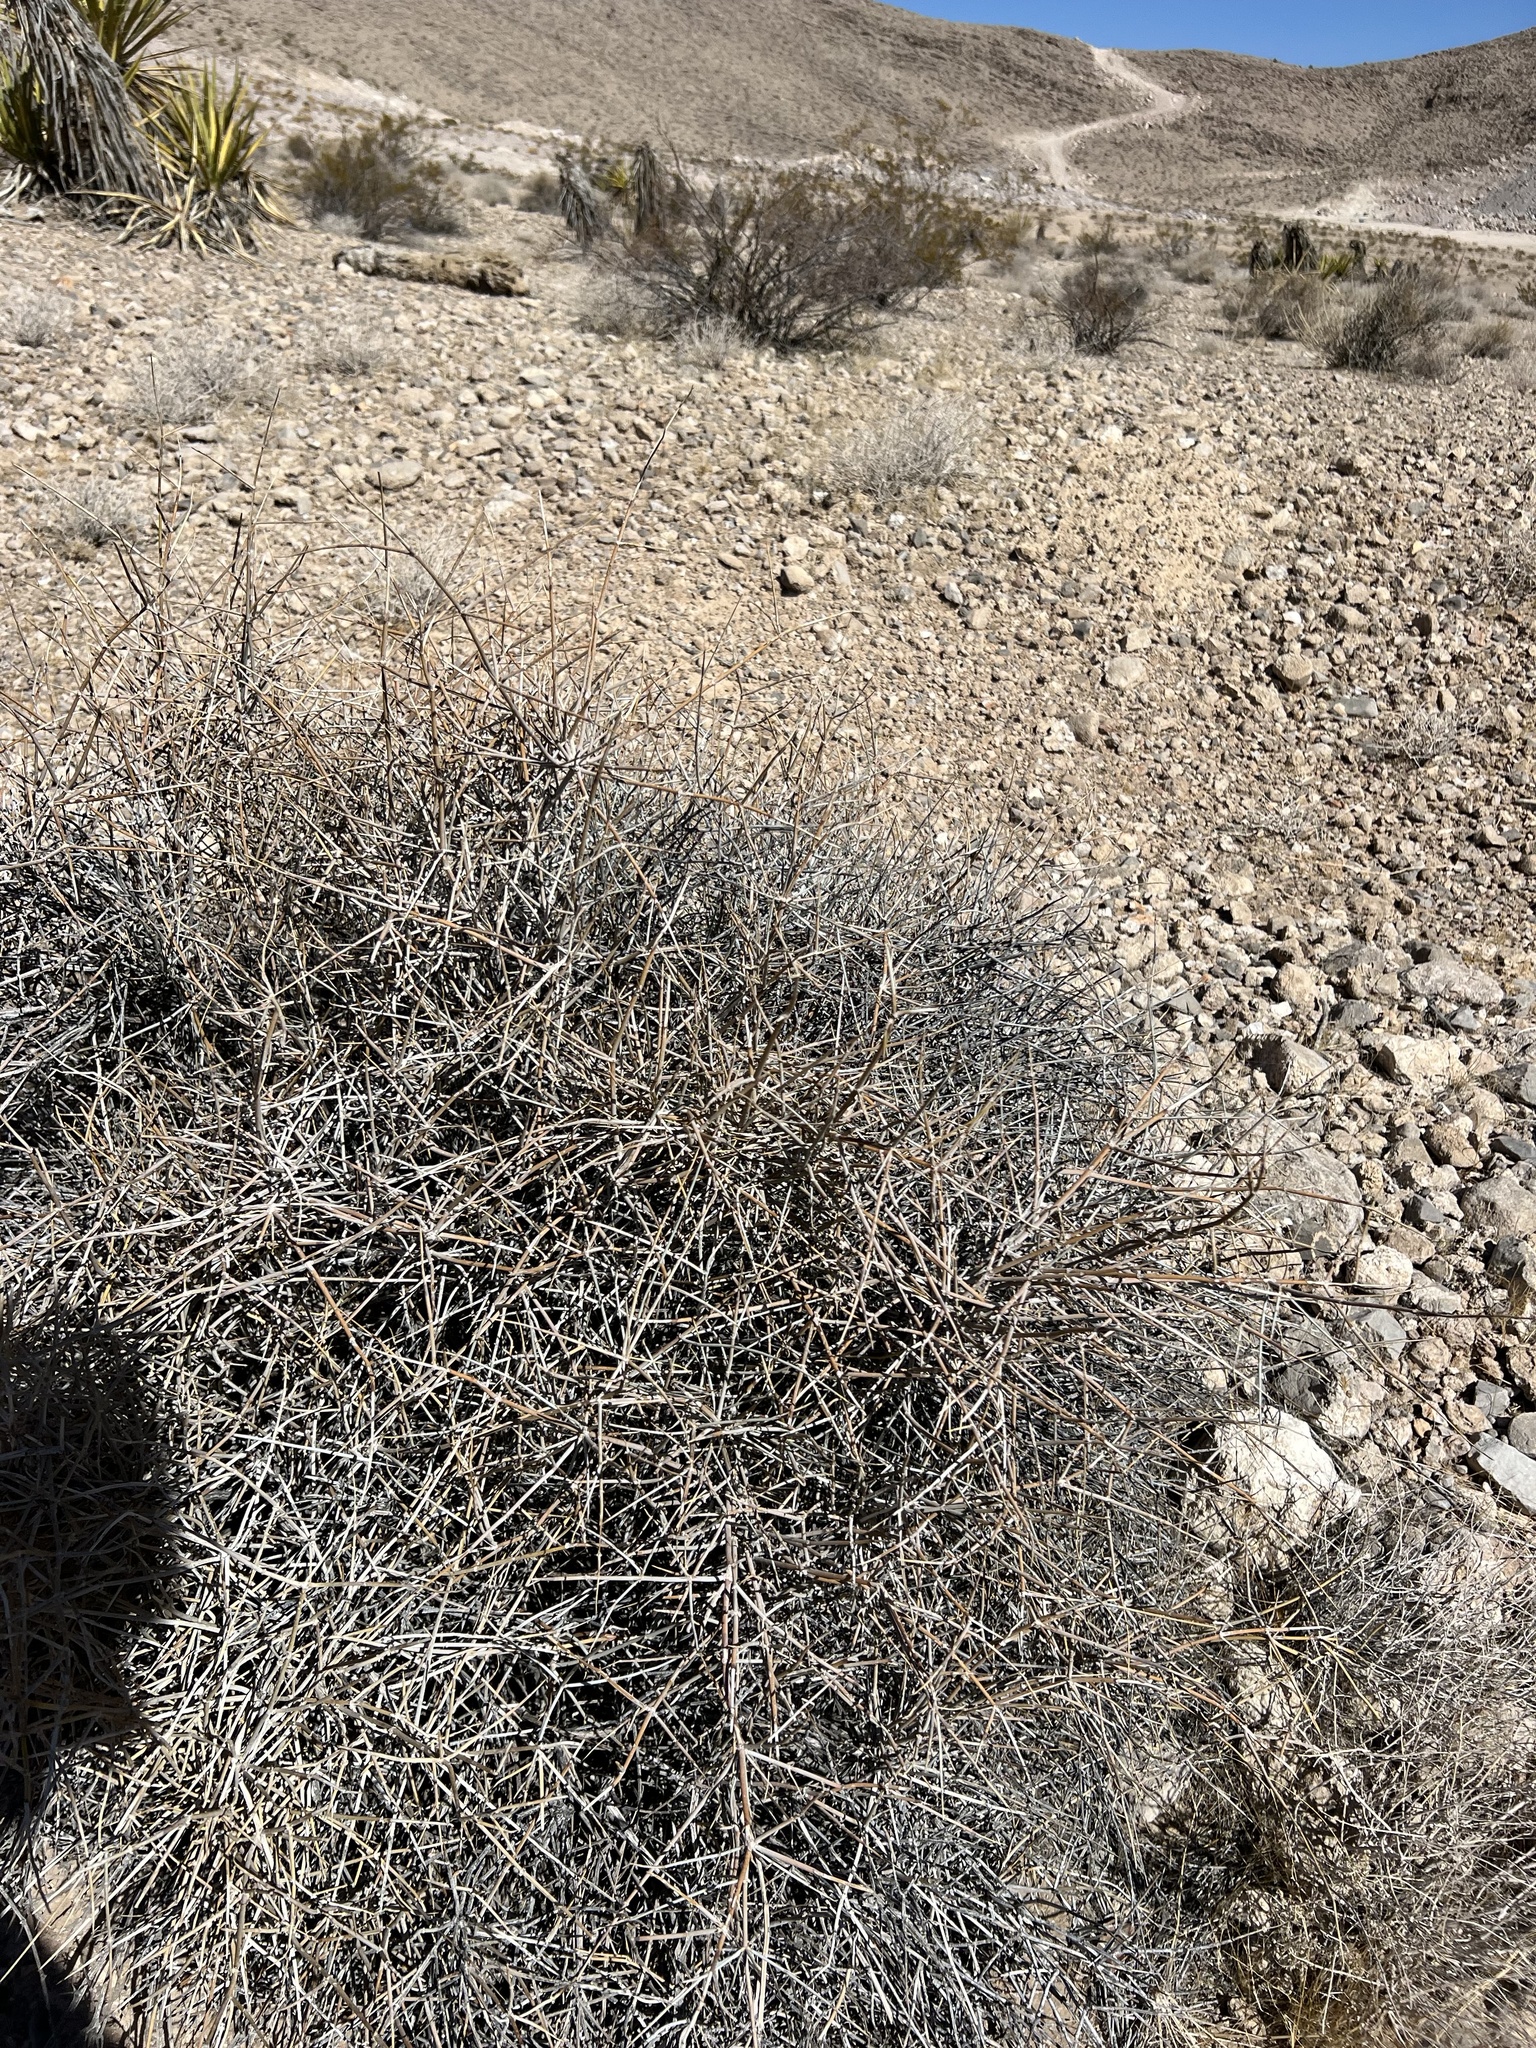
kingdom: Plantae
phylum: Tracheophyta
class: Gnetopsida
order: Ephedrales
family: Ephedraceae
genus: Ephedra
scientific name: Ephedra nevadensis
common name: Gray ephedra
